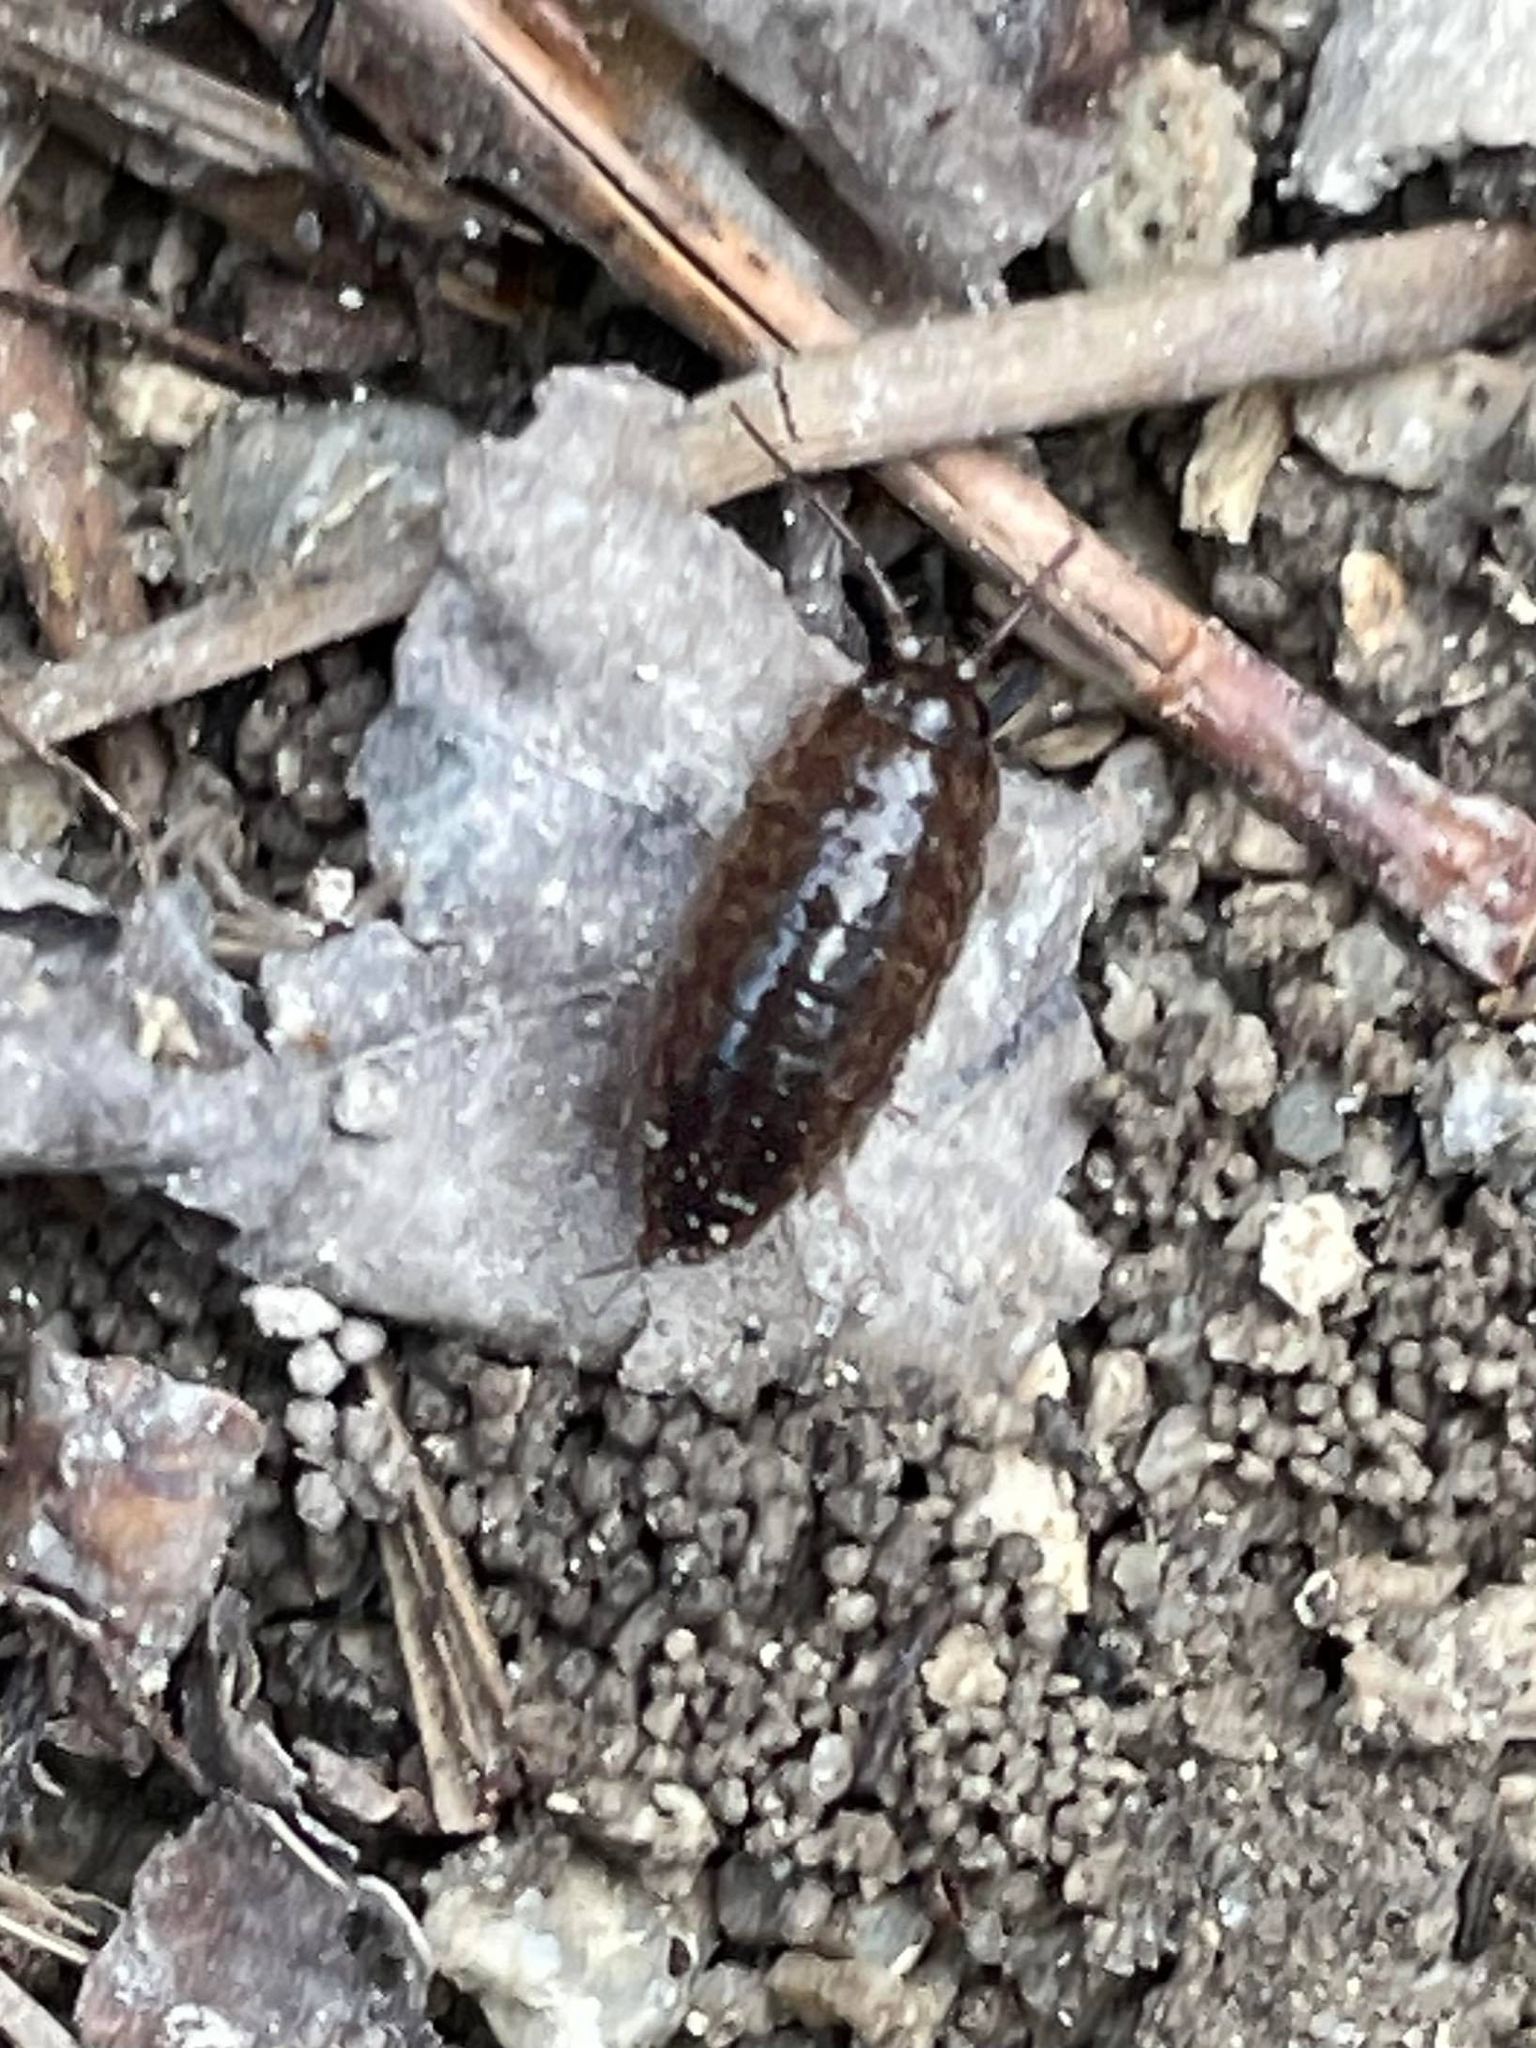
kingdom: Animalia
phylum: Arthropoda
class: Malacostraca
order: Isopoda
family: Ligiidae
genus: Ligidium
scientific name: Ligidium elrodii
